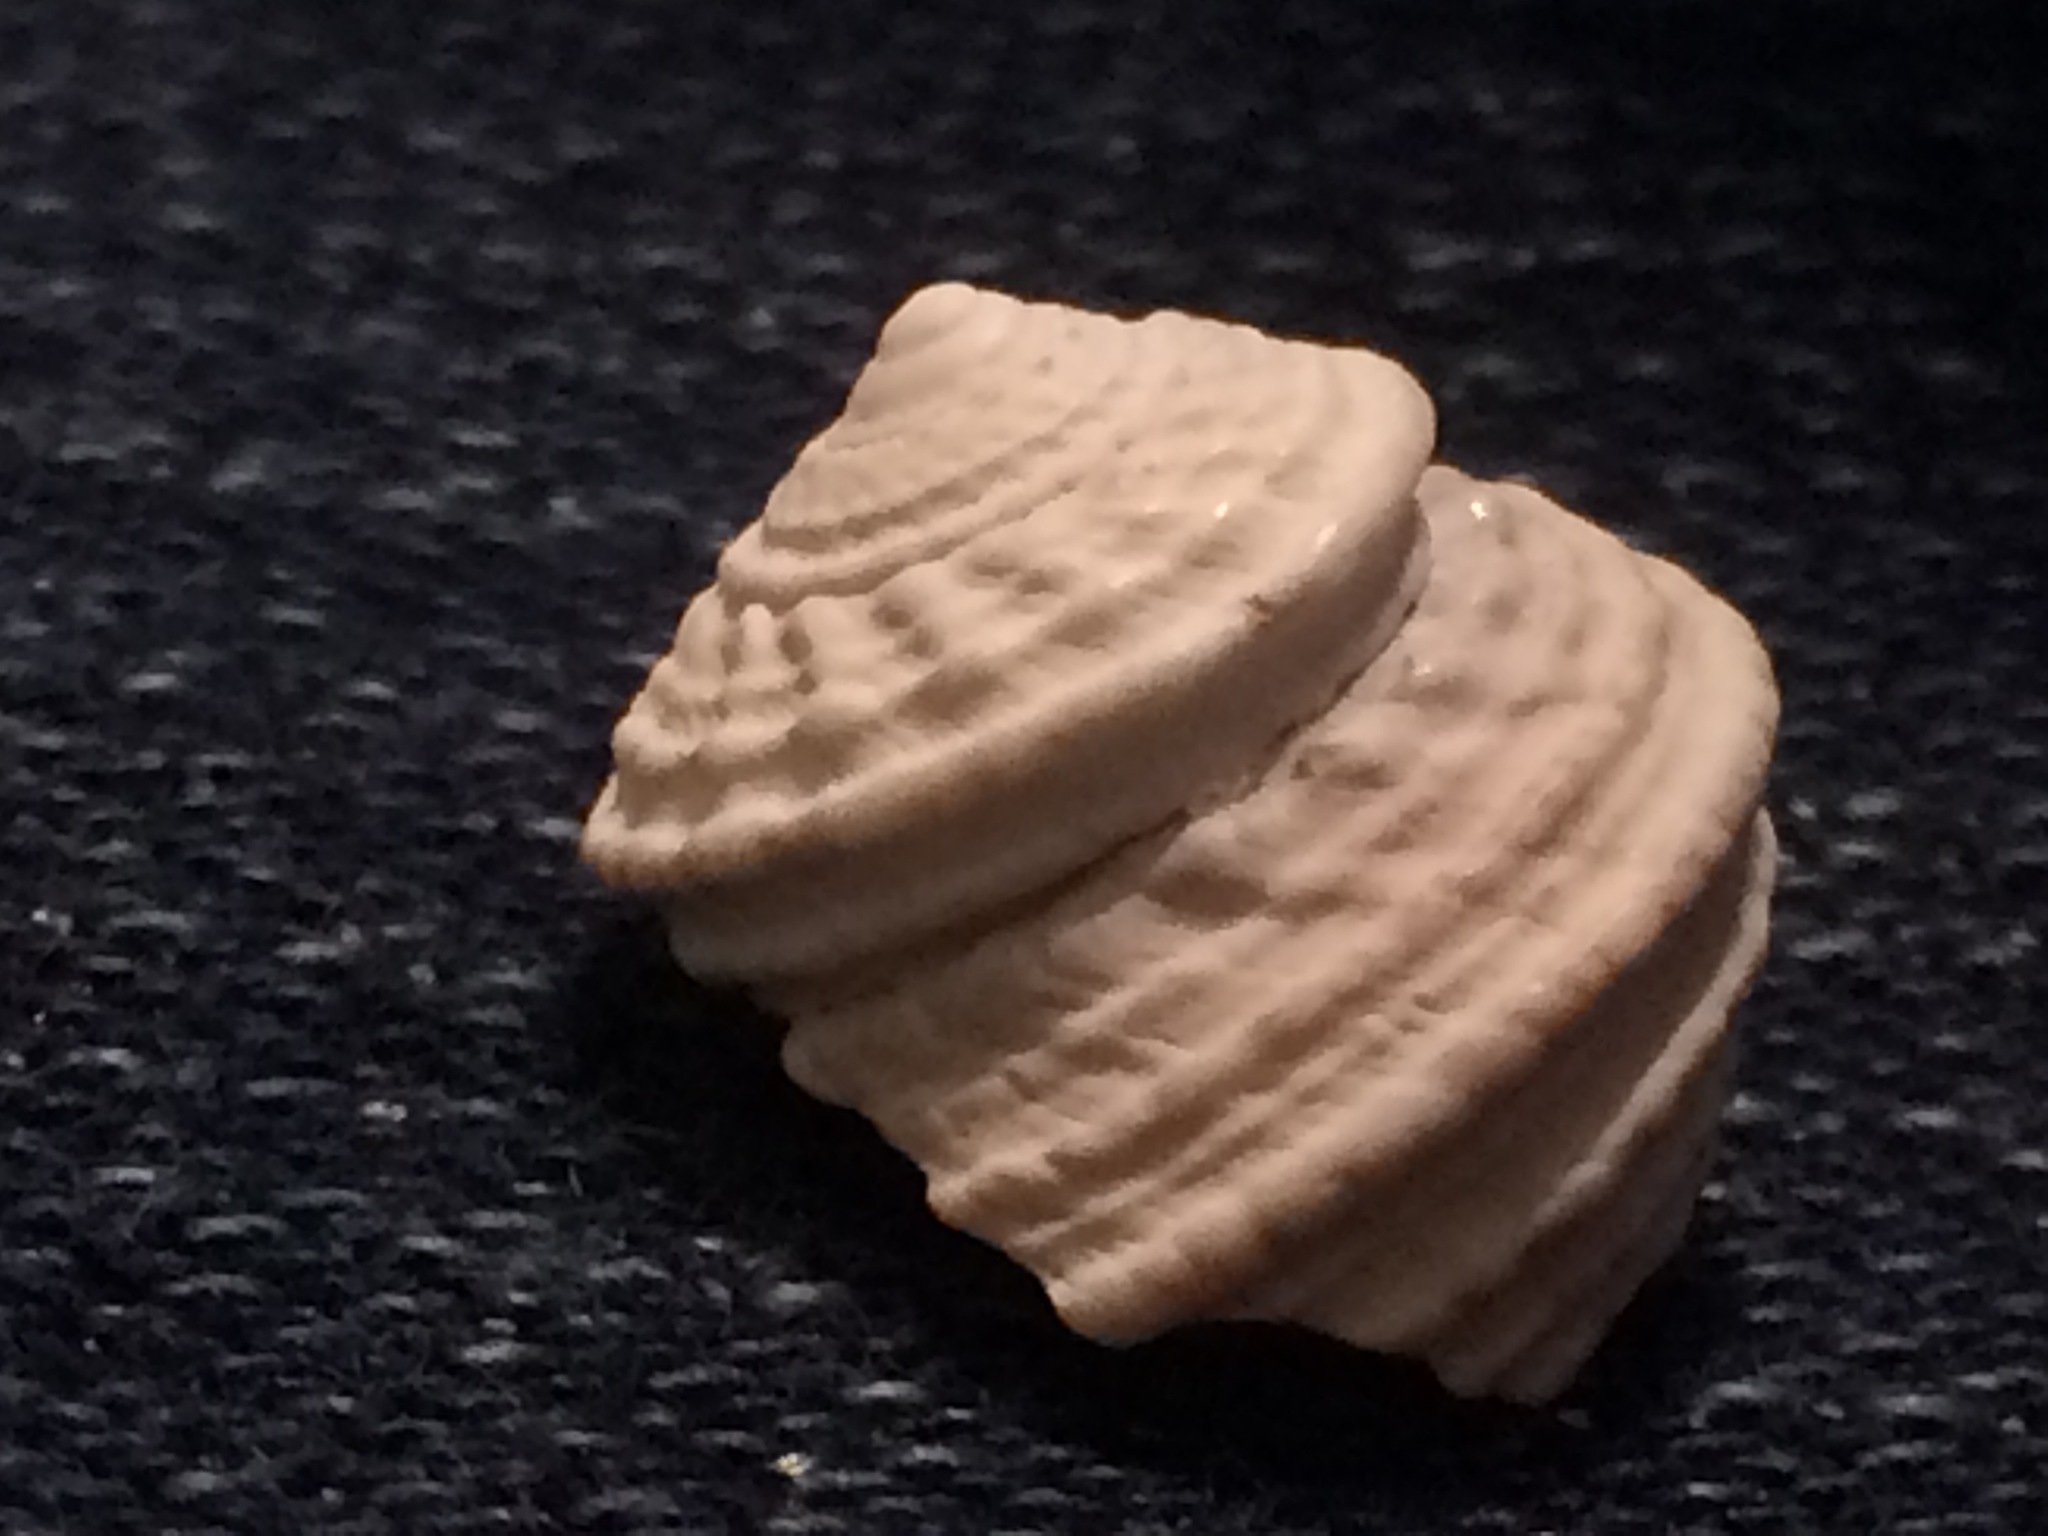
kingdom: Animalia
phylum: Mollusca
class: Gastropoda
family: Modulidae
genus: Modulus
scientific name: Modulus modulus
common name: Atlantic modulus
